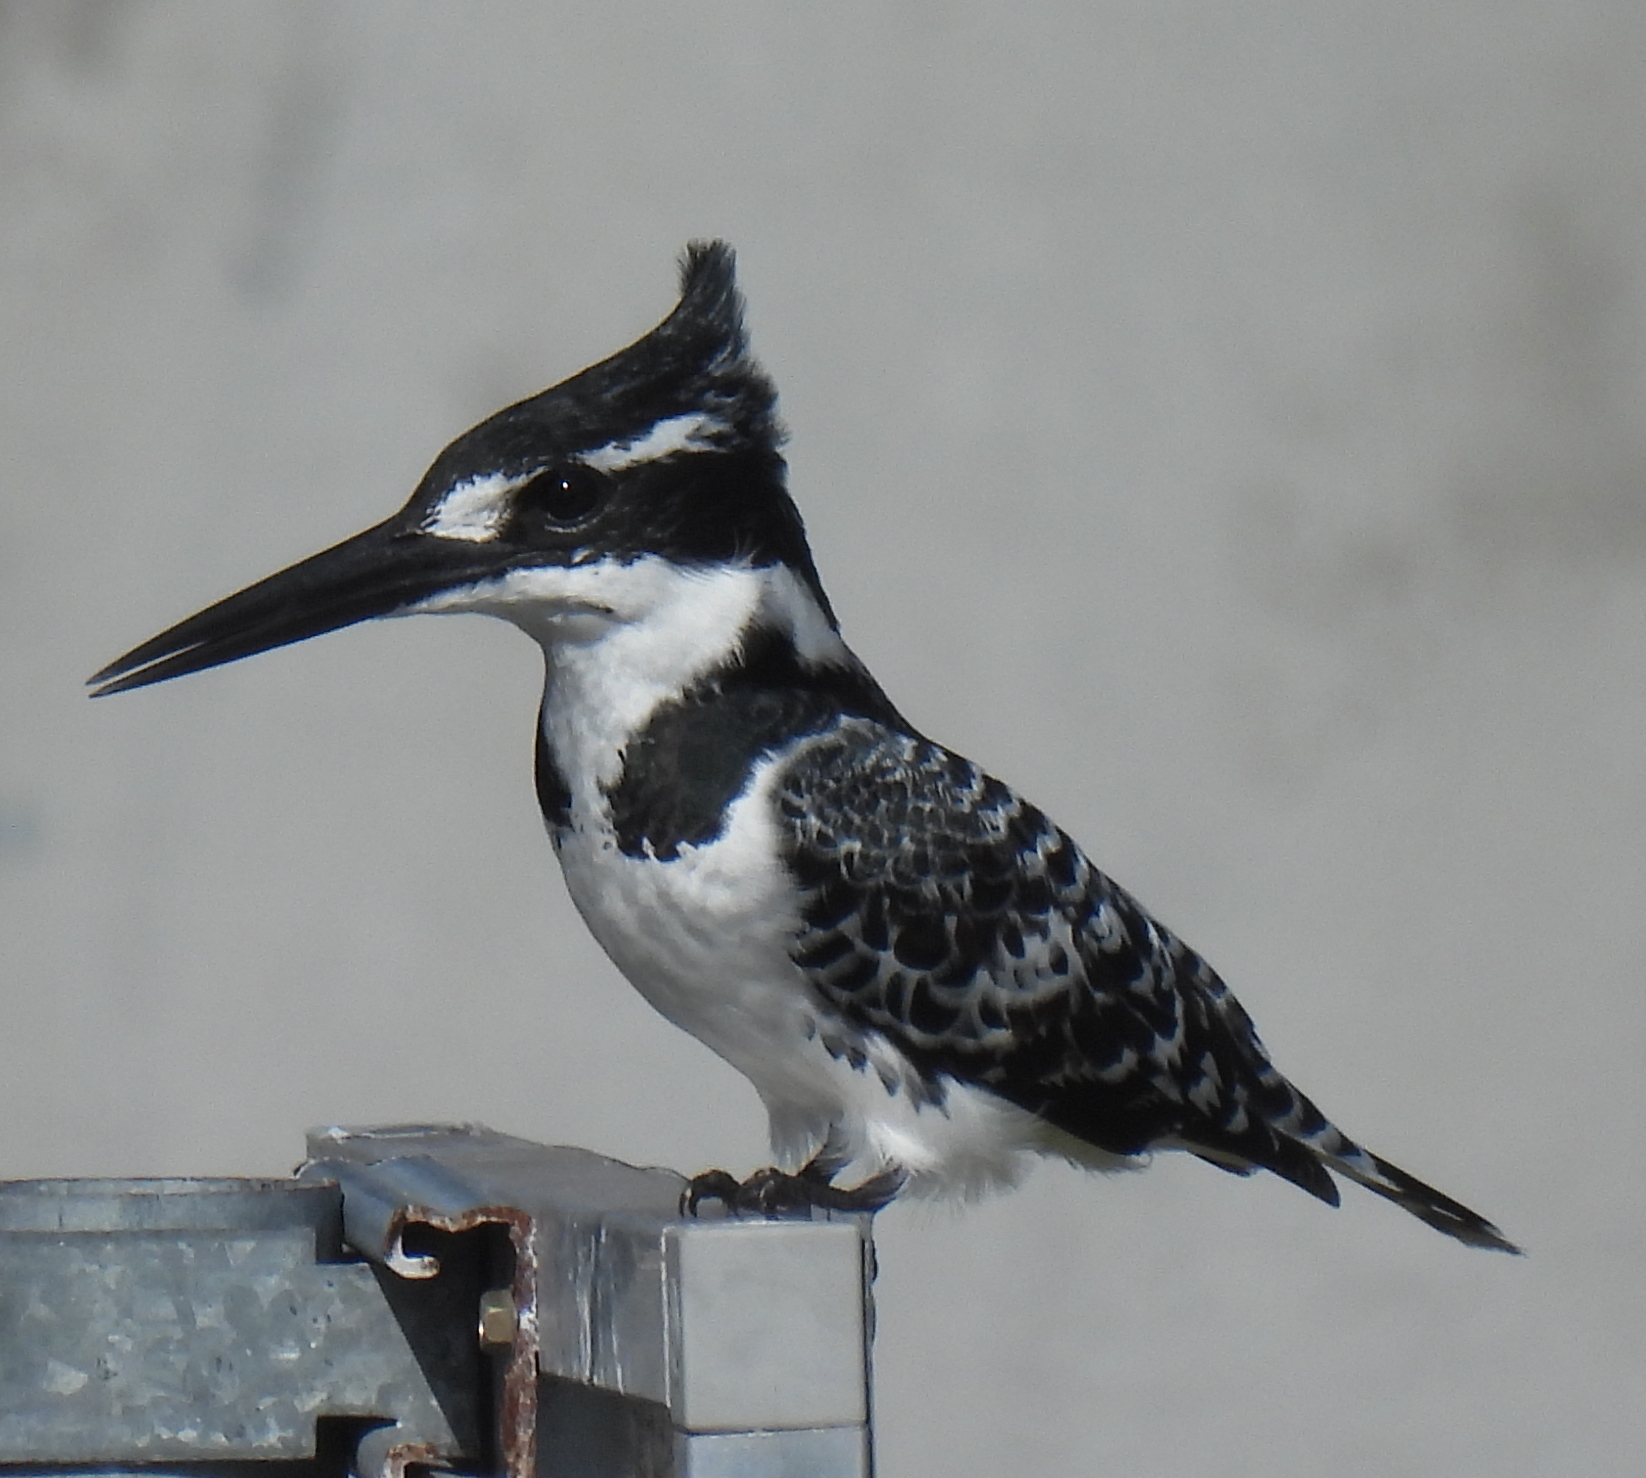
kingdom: Animalia
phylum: Chordata
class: Aves
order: Coraciiformes
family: Alcedinidae
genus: Ceryle
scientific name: Ceryle rudis
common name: Pied kingfisher
